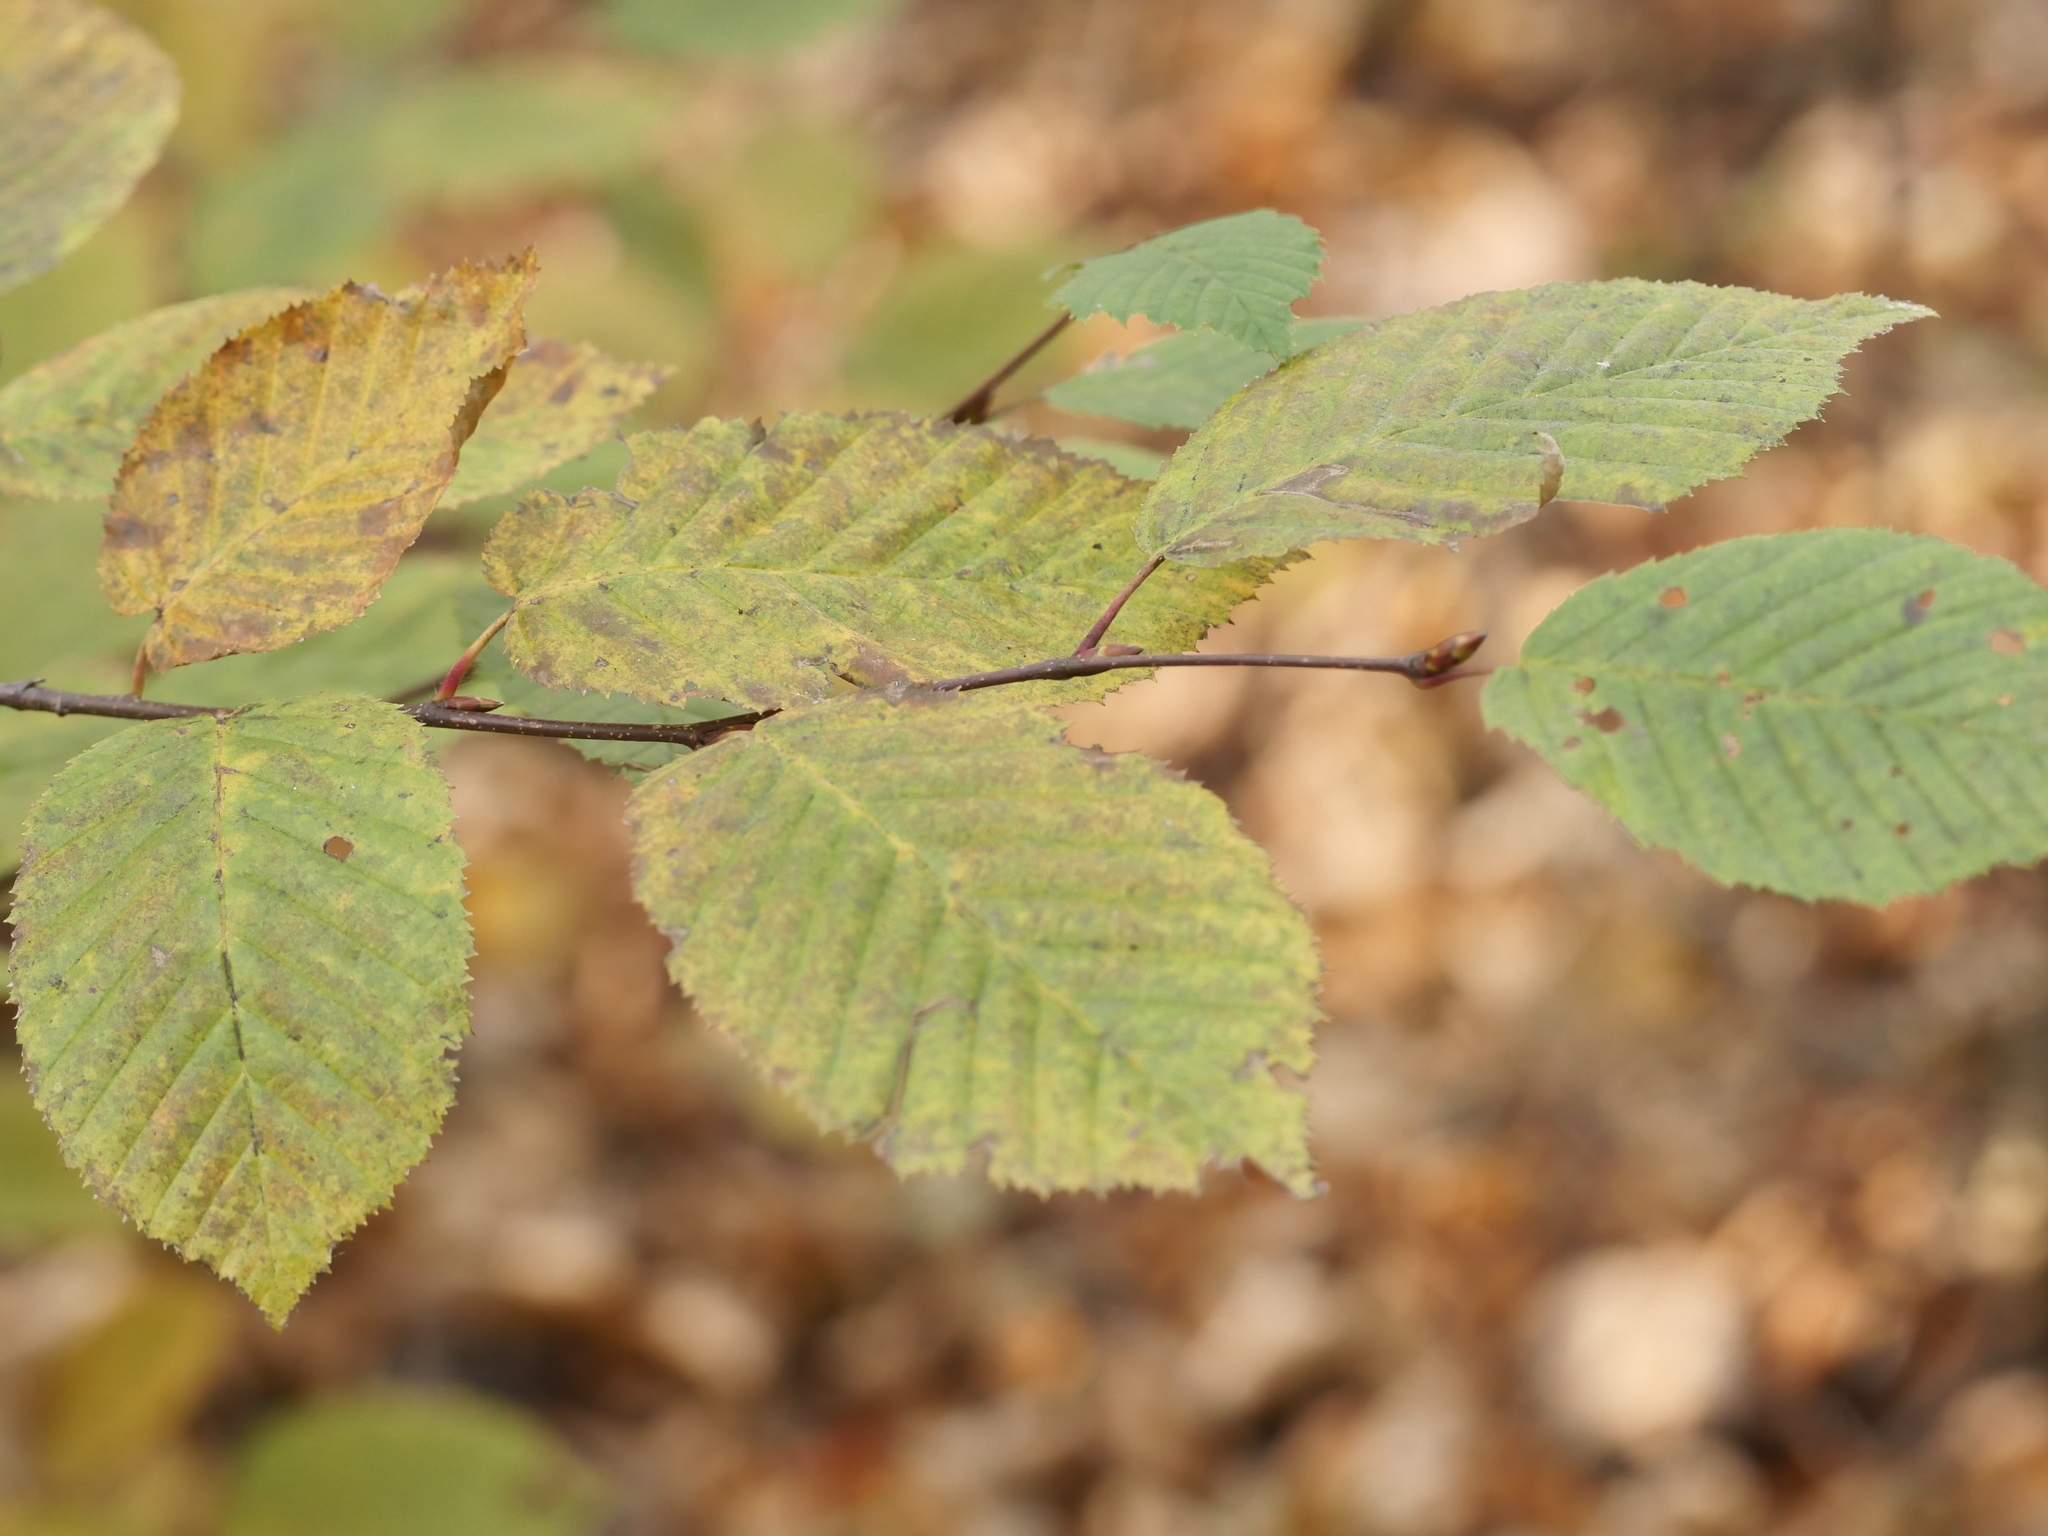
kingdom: Plantae
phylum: Tracheophyta
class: Magnoliopsida
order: Fagales
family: Betulaceae
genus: Carpinus
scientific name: Carpinus betulus
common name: Hornbeam
